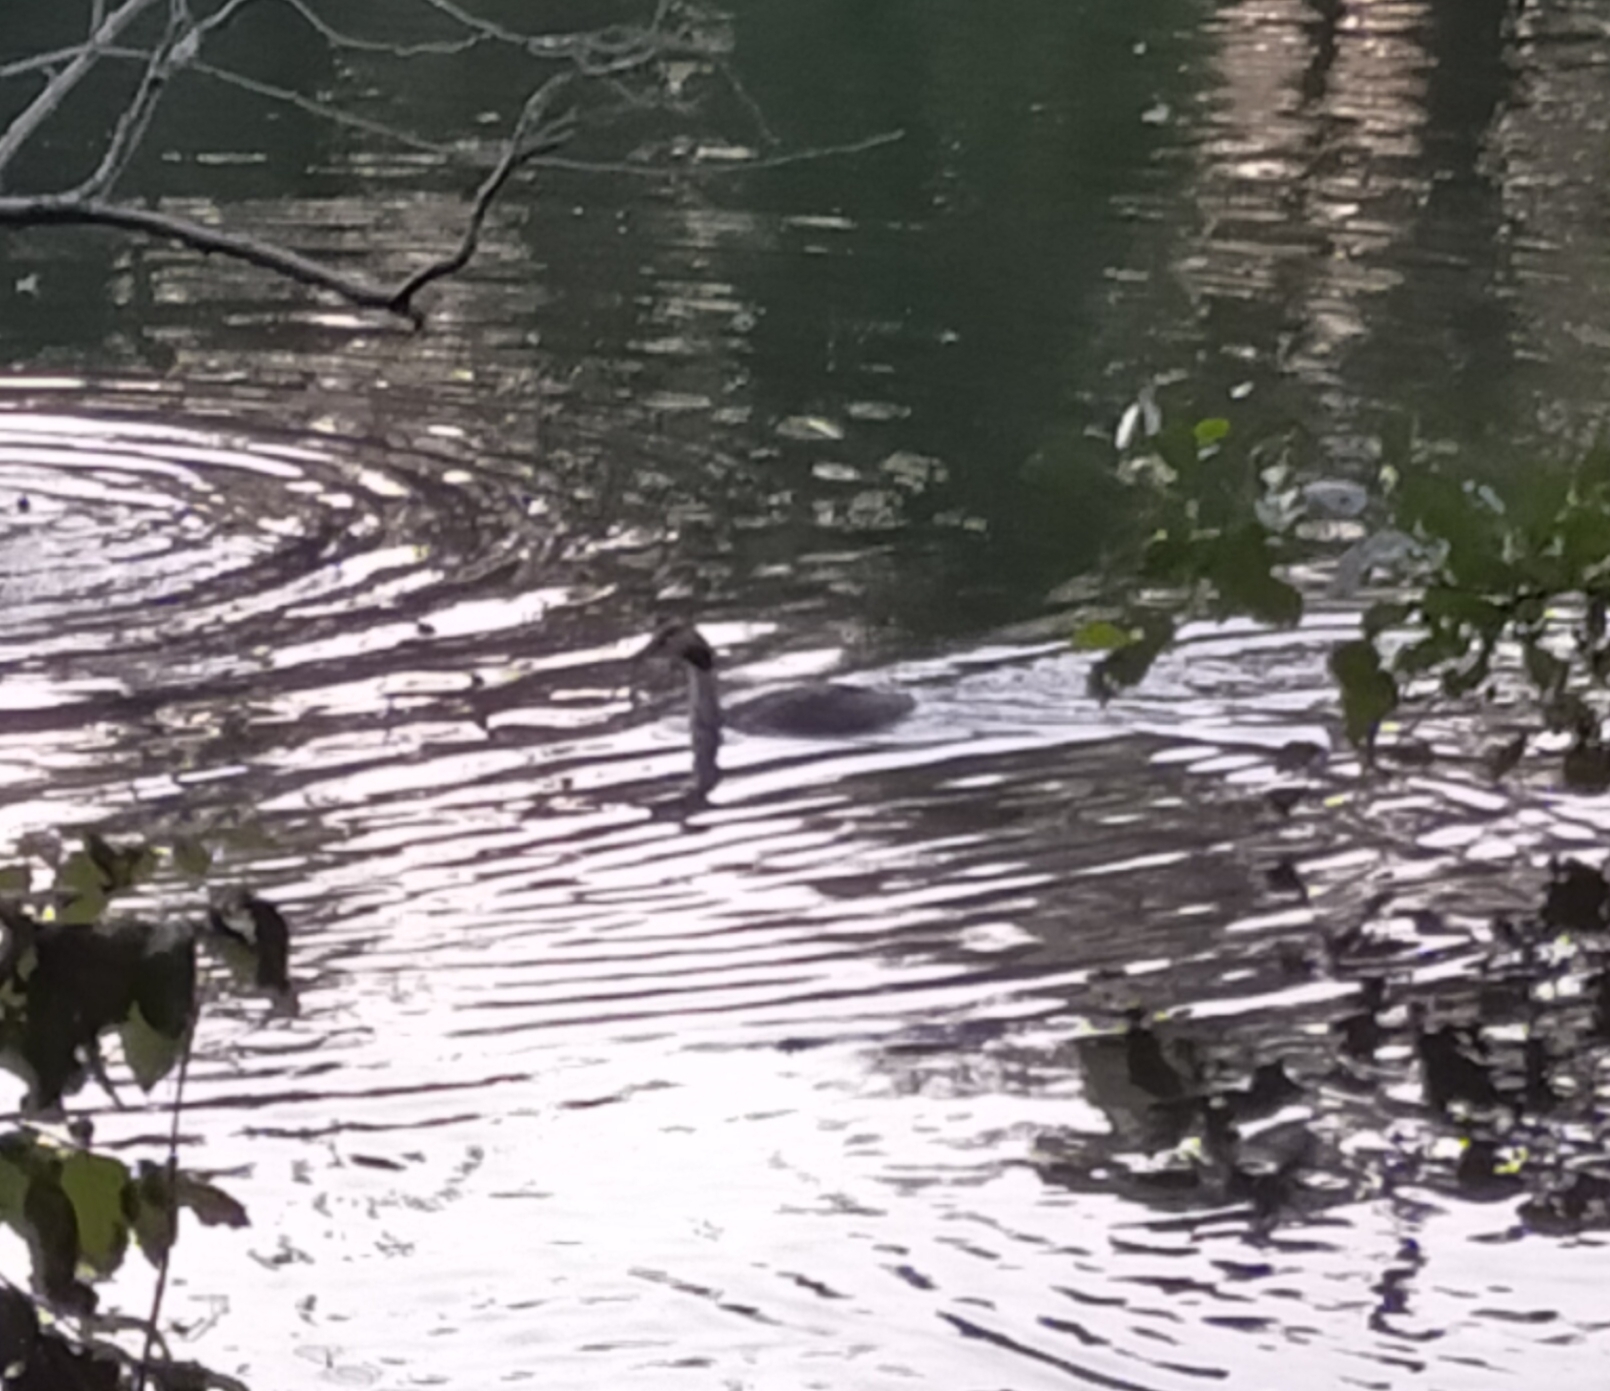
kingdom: Animalia
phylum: Chordata
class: Aves
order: Podicipediformes
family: Podicipedidae
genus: Podiceps
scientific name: Podiceps cristatus
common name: Great crested grebe
